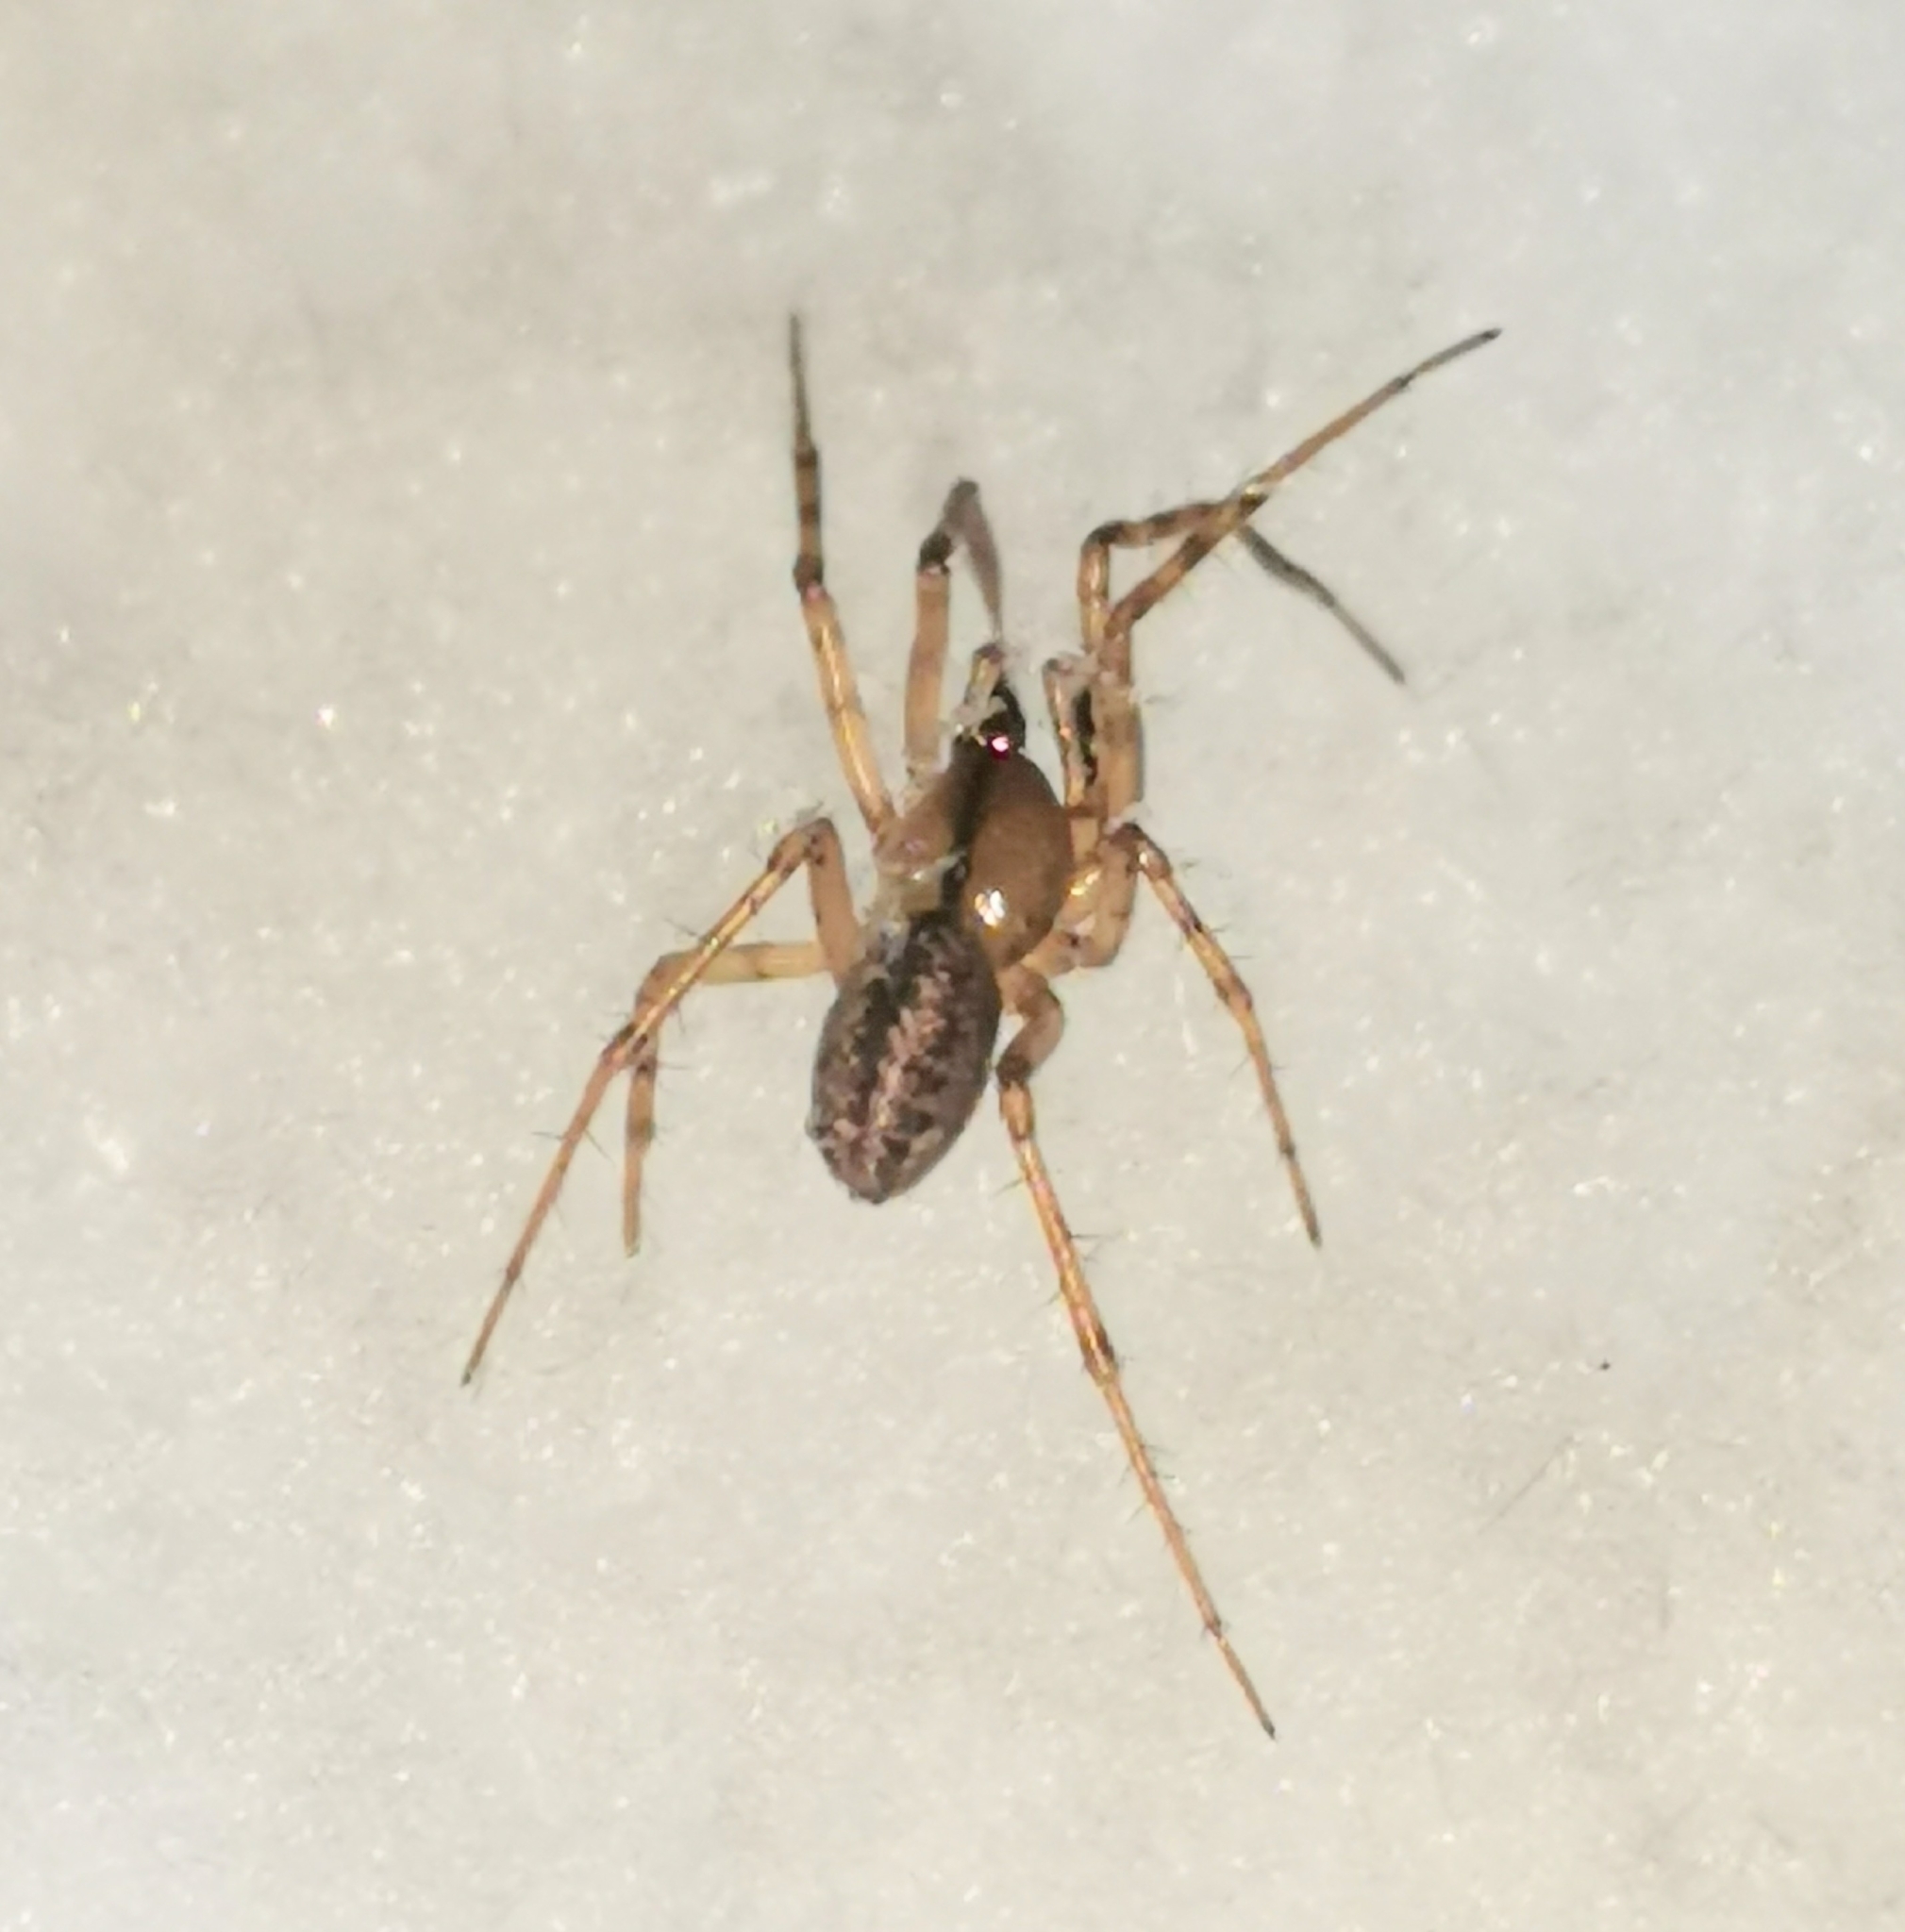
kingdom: Animalia
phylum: Arthropoda
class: Arachnida
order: Araneae
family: Linyphiidae
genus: Stemonyphantes
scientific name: Stemonyphantes lineatus
